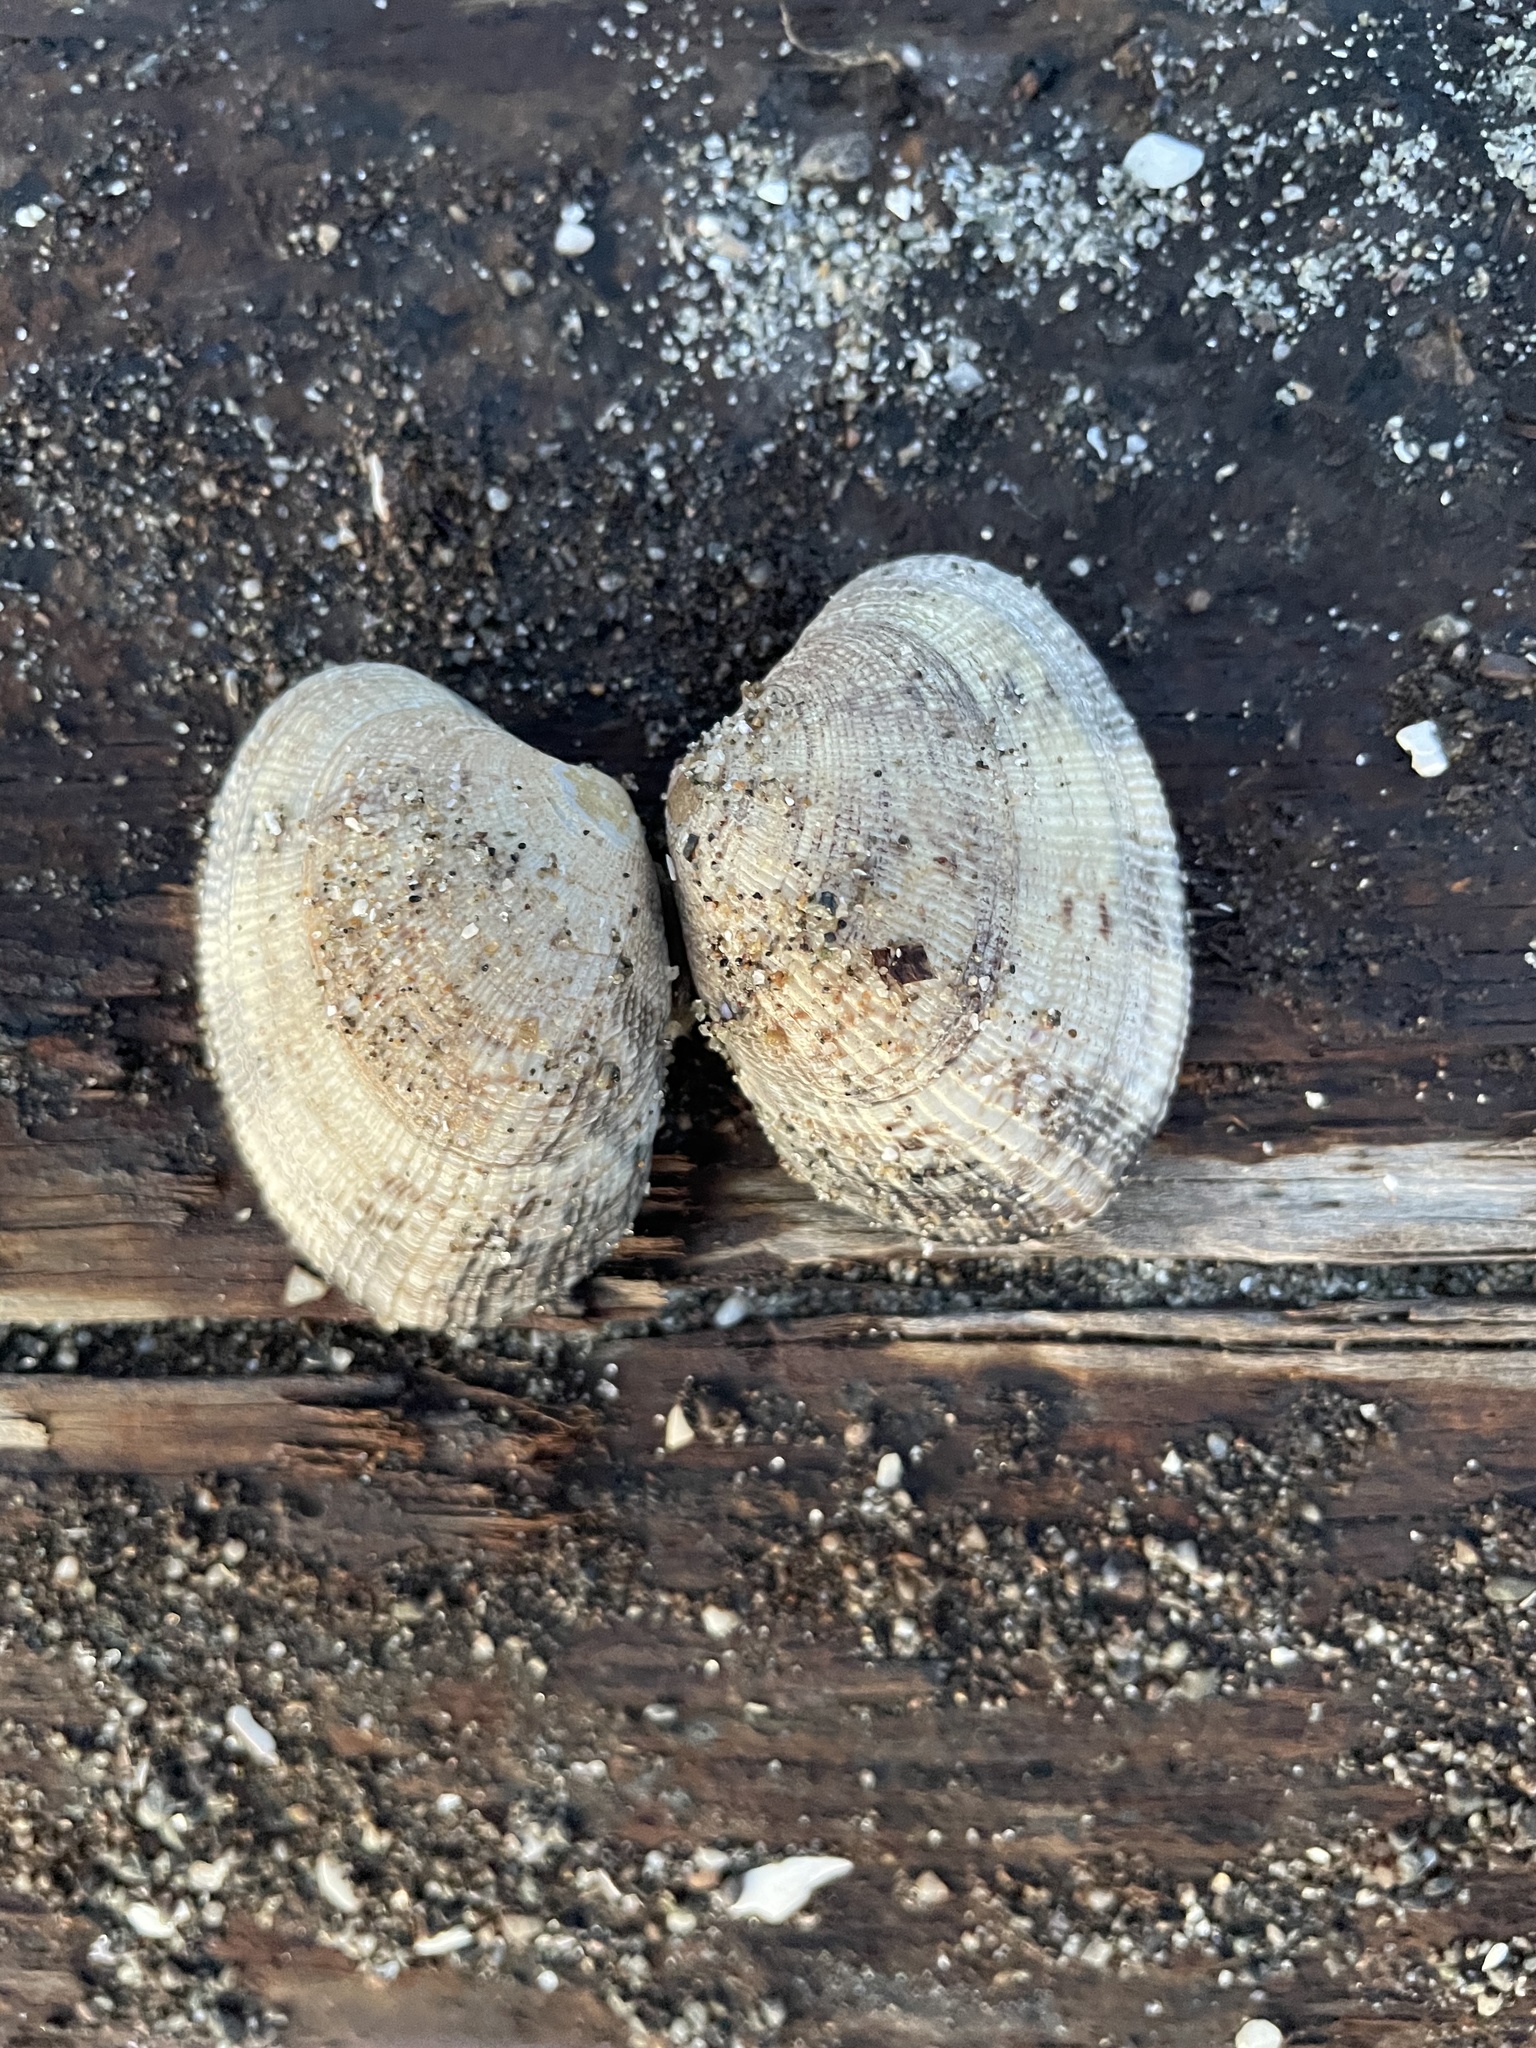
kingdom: Animalia
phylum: Mollusca
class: Bivalvia
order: Venerida
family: Veneridae
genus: Ruditapes
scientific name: Ruditapes philippinarum
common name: Manila clam
